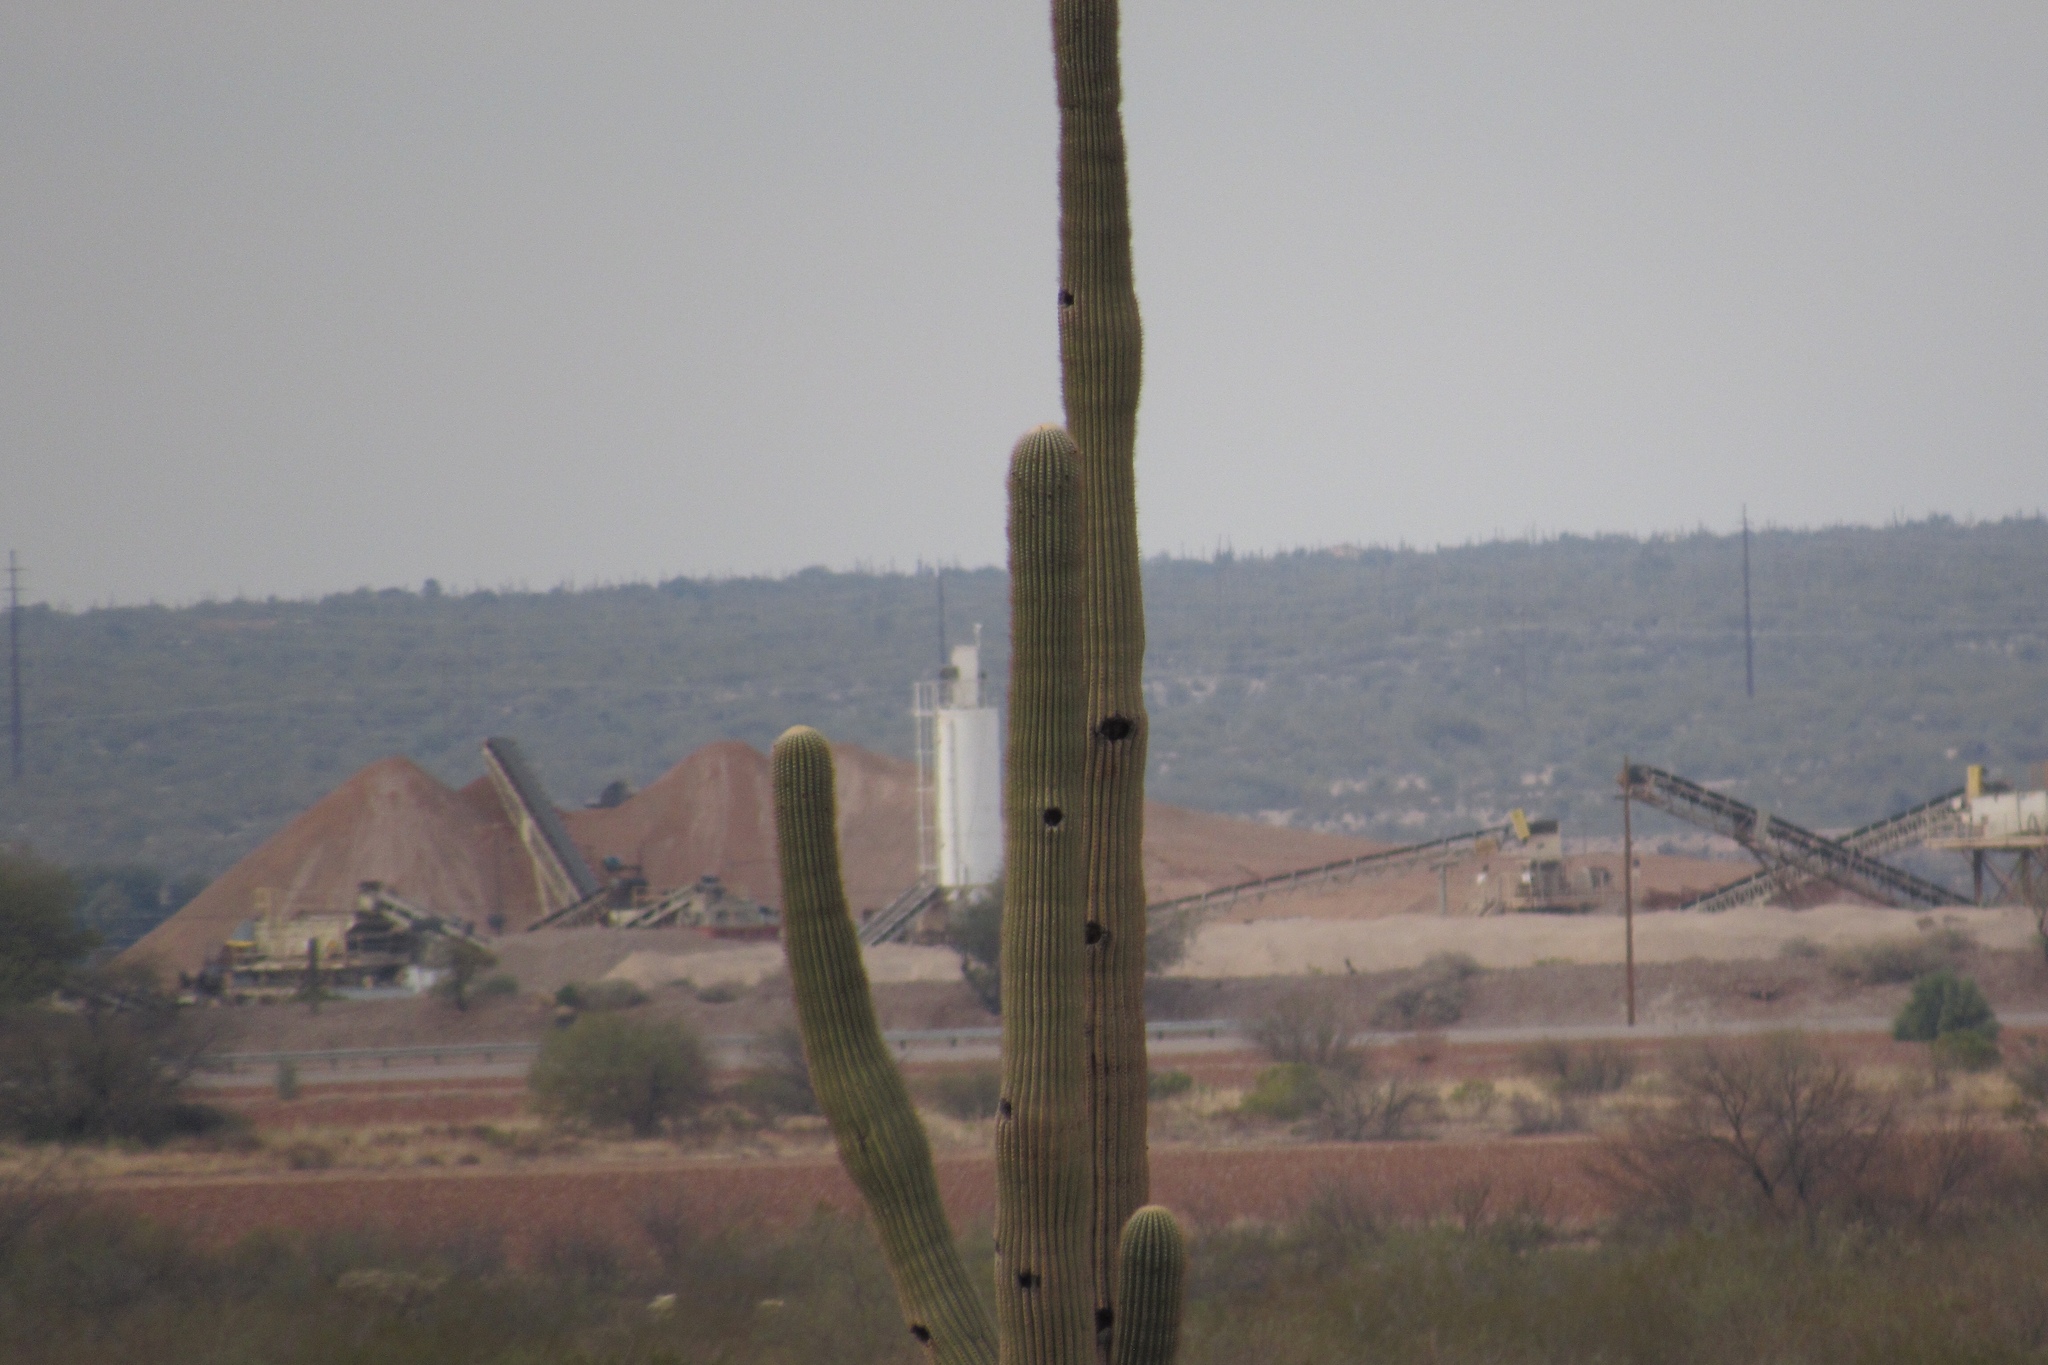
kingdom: Plantae
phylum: Tracheophyta
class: Magnoliopsida
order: Caryophyllales
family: Cactaceae
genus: Carnegiea
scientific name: Carnegiea gigantea
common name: Saguaro
